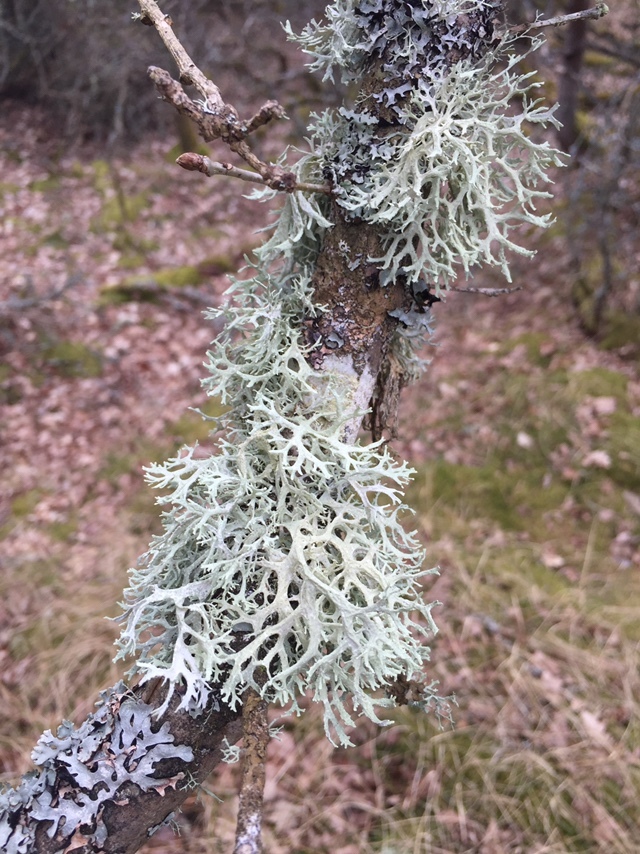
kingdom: Fungi
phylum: Ascomycota
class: Lecanoromycetes
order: Lecanorales
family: Parmeliaceae
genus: Evernia
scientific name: Evernia prunastri
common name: Oak moss
